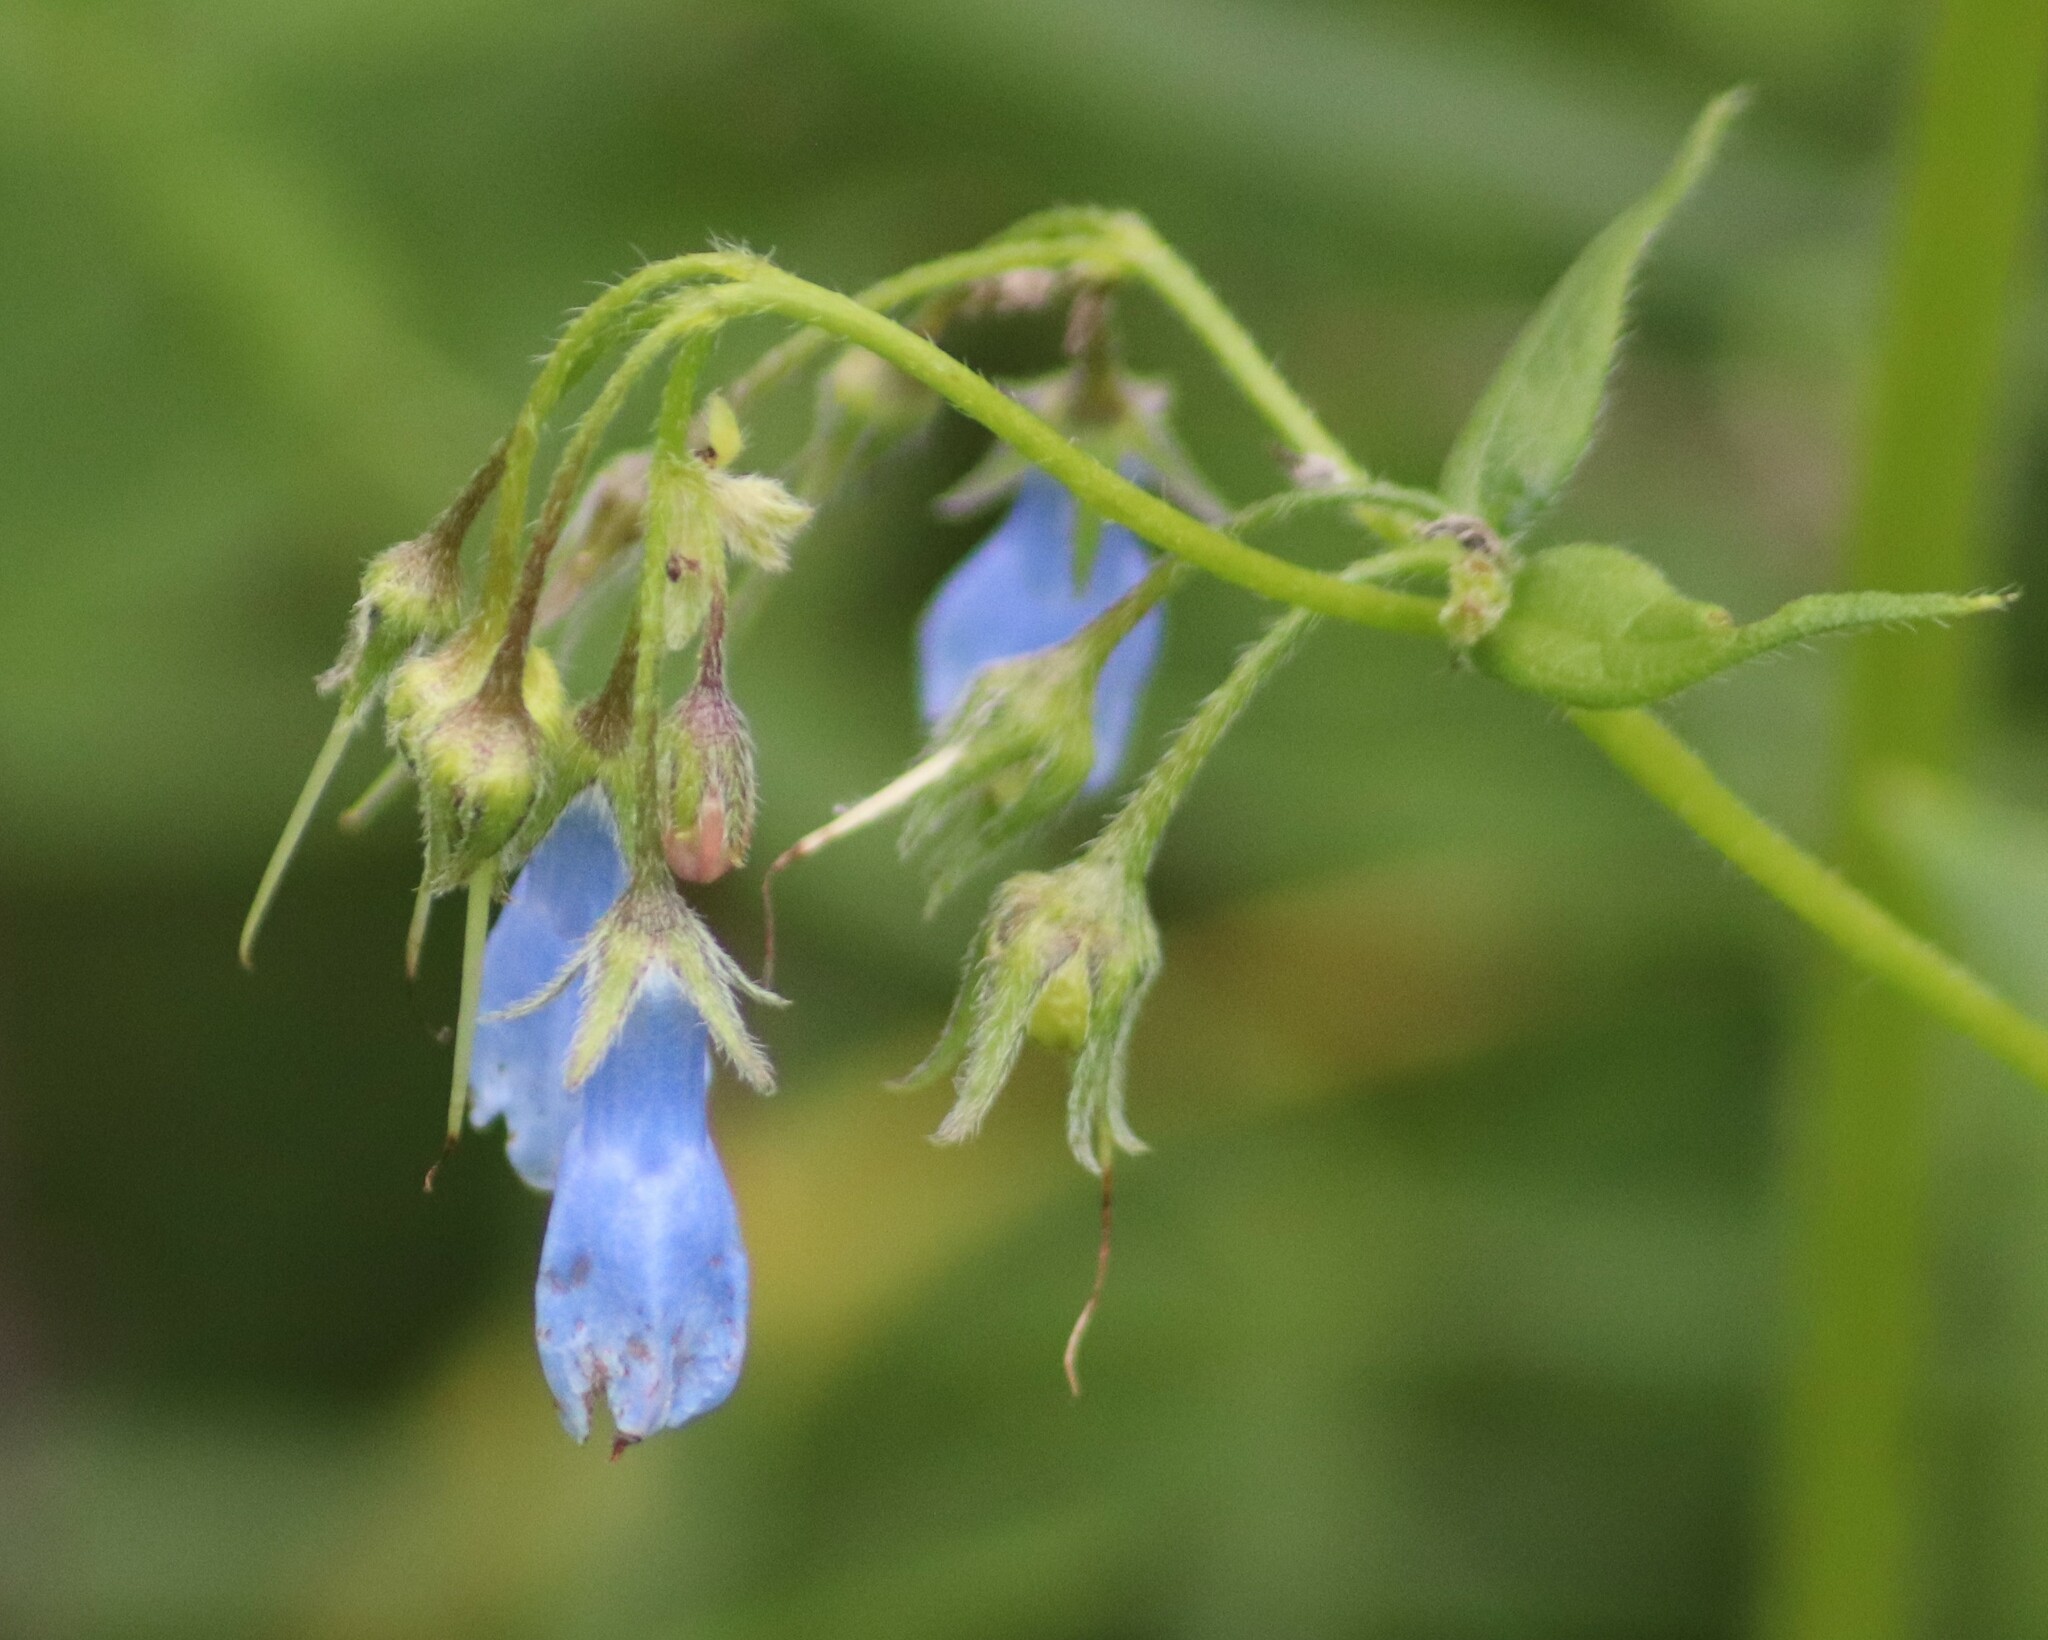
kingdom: Plantae
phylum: Tracheophyta
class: Magnoliopsida
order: Boraginales
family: Boraginaceae
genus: Mertensia
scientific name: Mertensia paniculata
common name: Panicled bluebells
